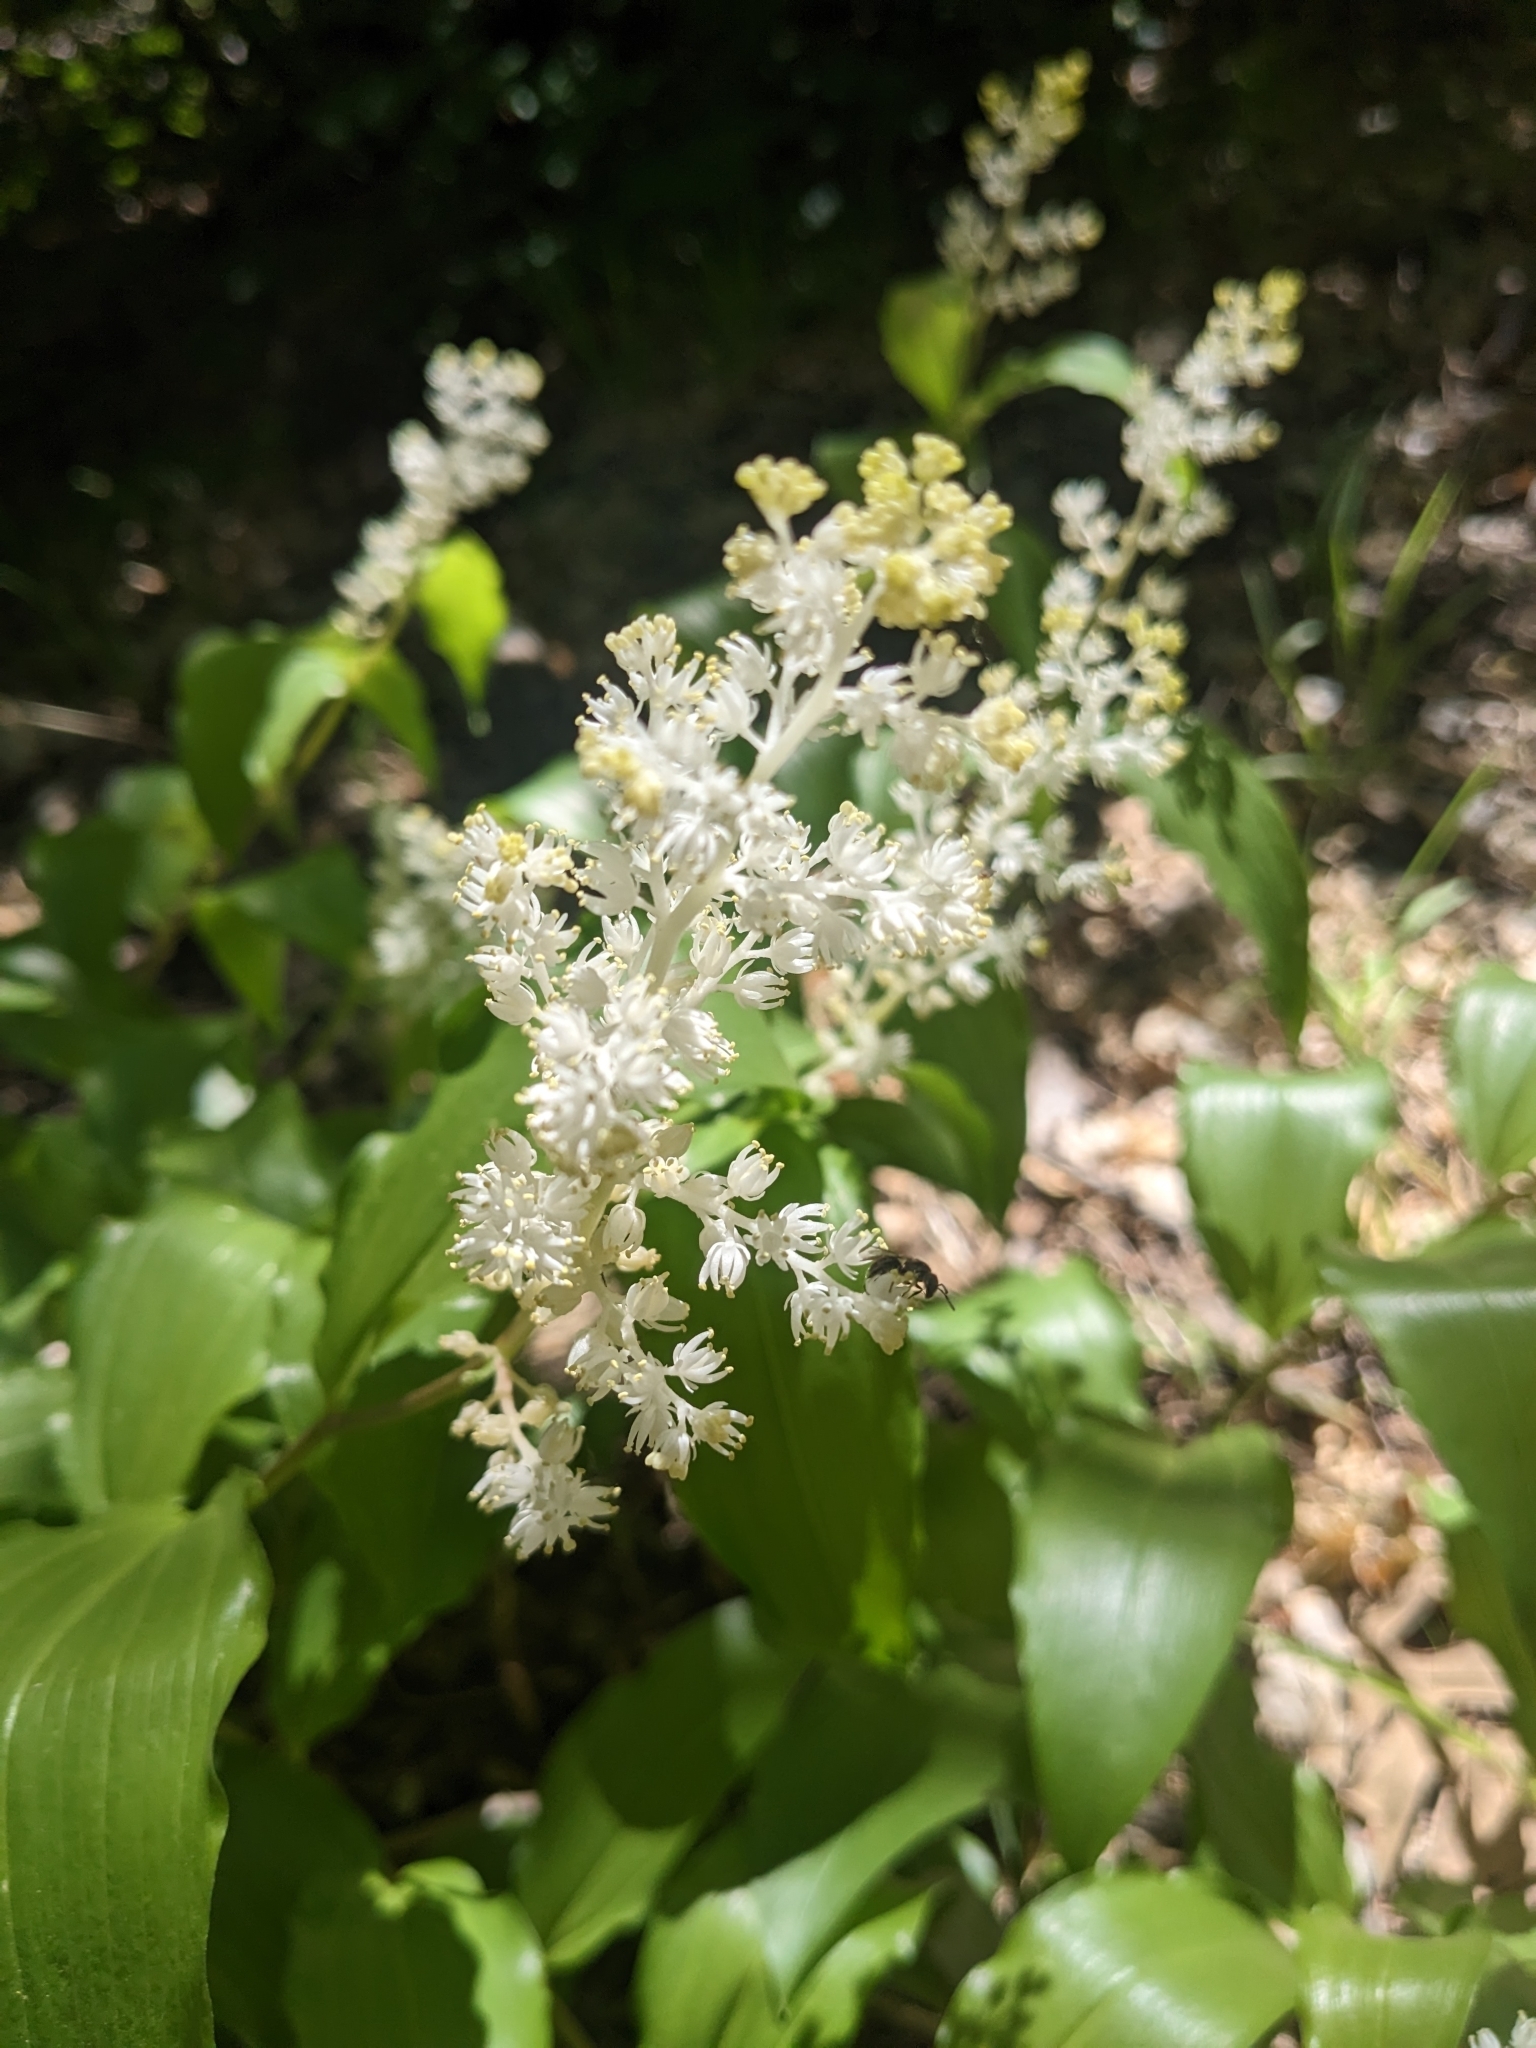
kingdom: Plantae
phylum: Tracheophyta
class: Liliopsida
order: Asparagales
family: Asparagaceae
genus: Maianthemum
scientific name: Maianthemum racemosum
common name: False spikenard
